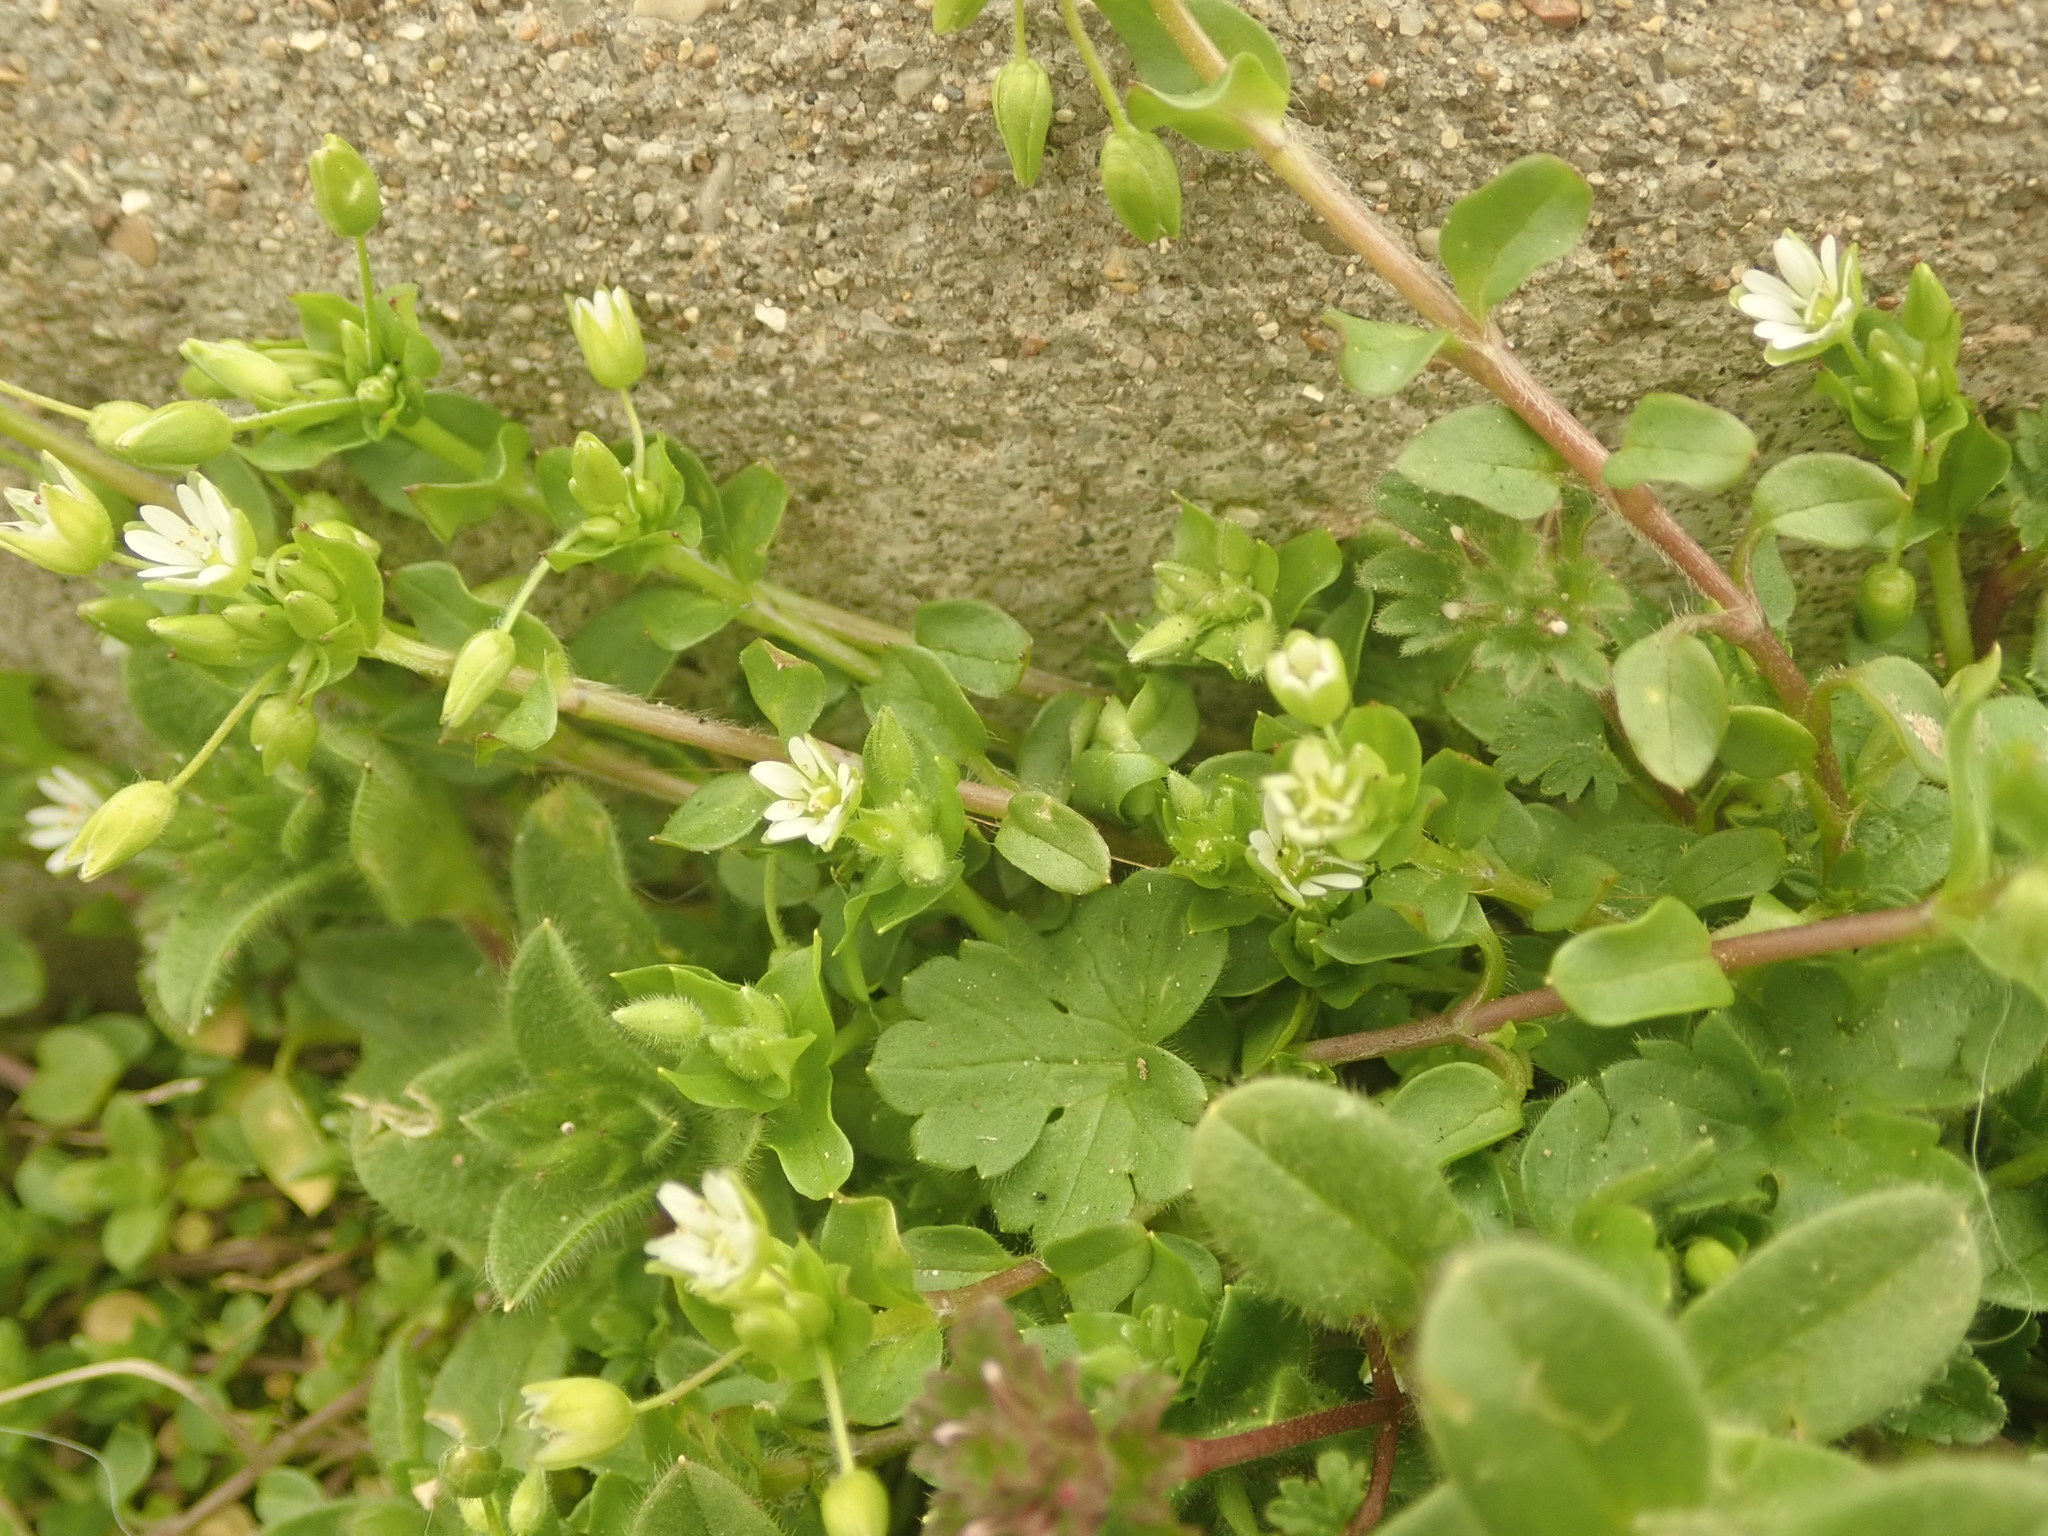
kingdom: Plantae
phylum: Tracheophyta
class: Magnoliopsida
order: Caryophyllales
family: Caryophyllaceae
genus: Stellaria
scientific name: Stellaria media
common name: Common chickweed
